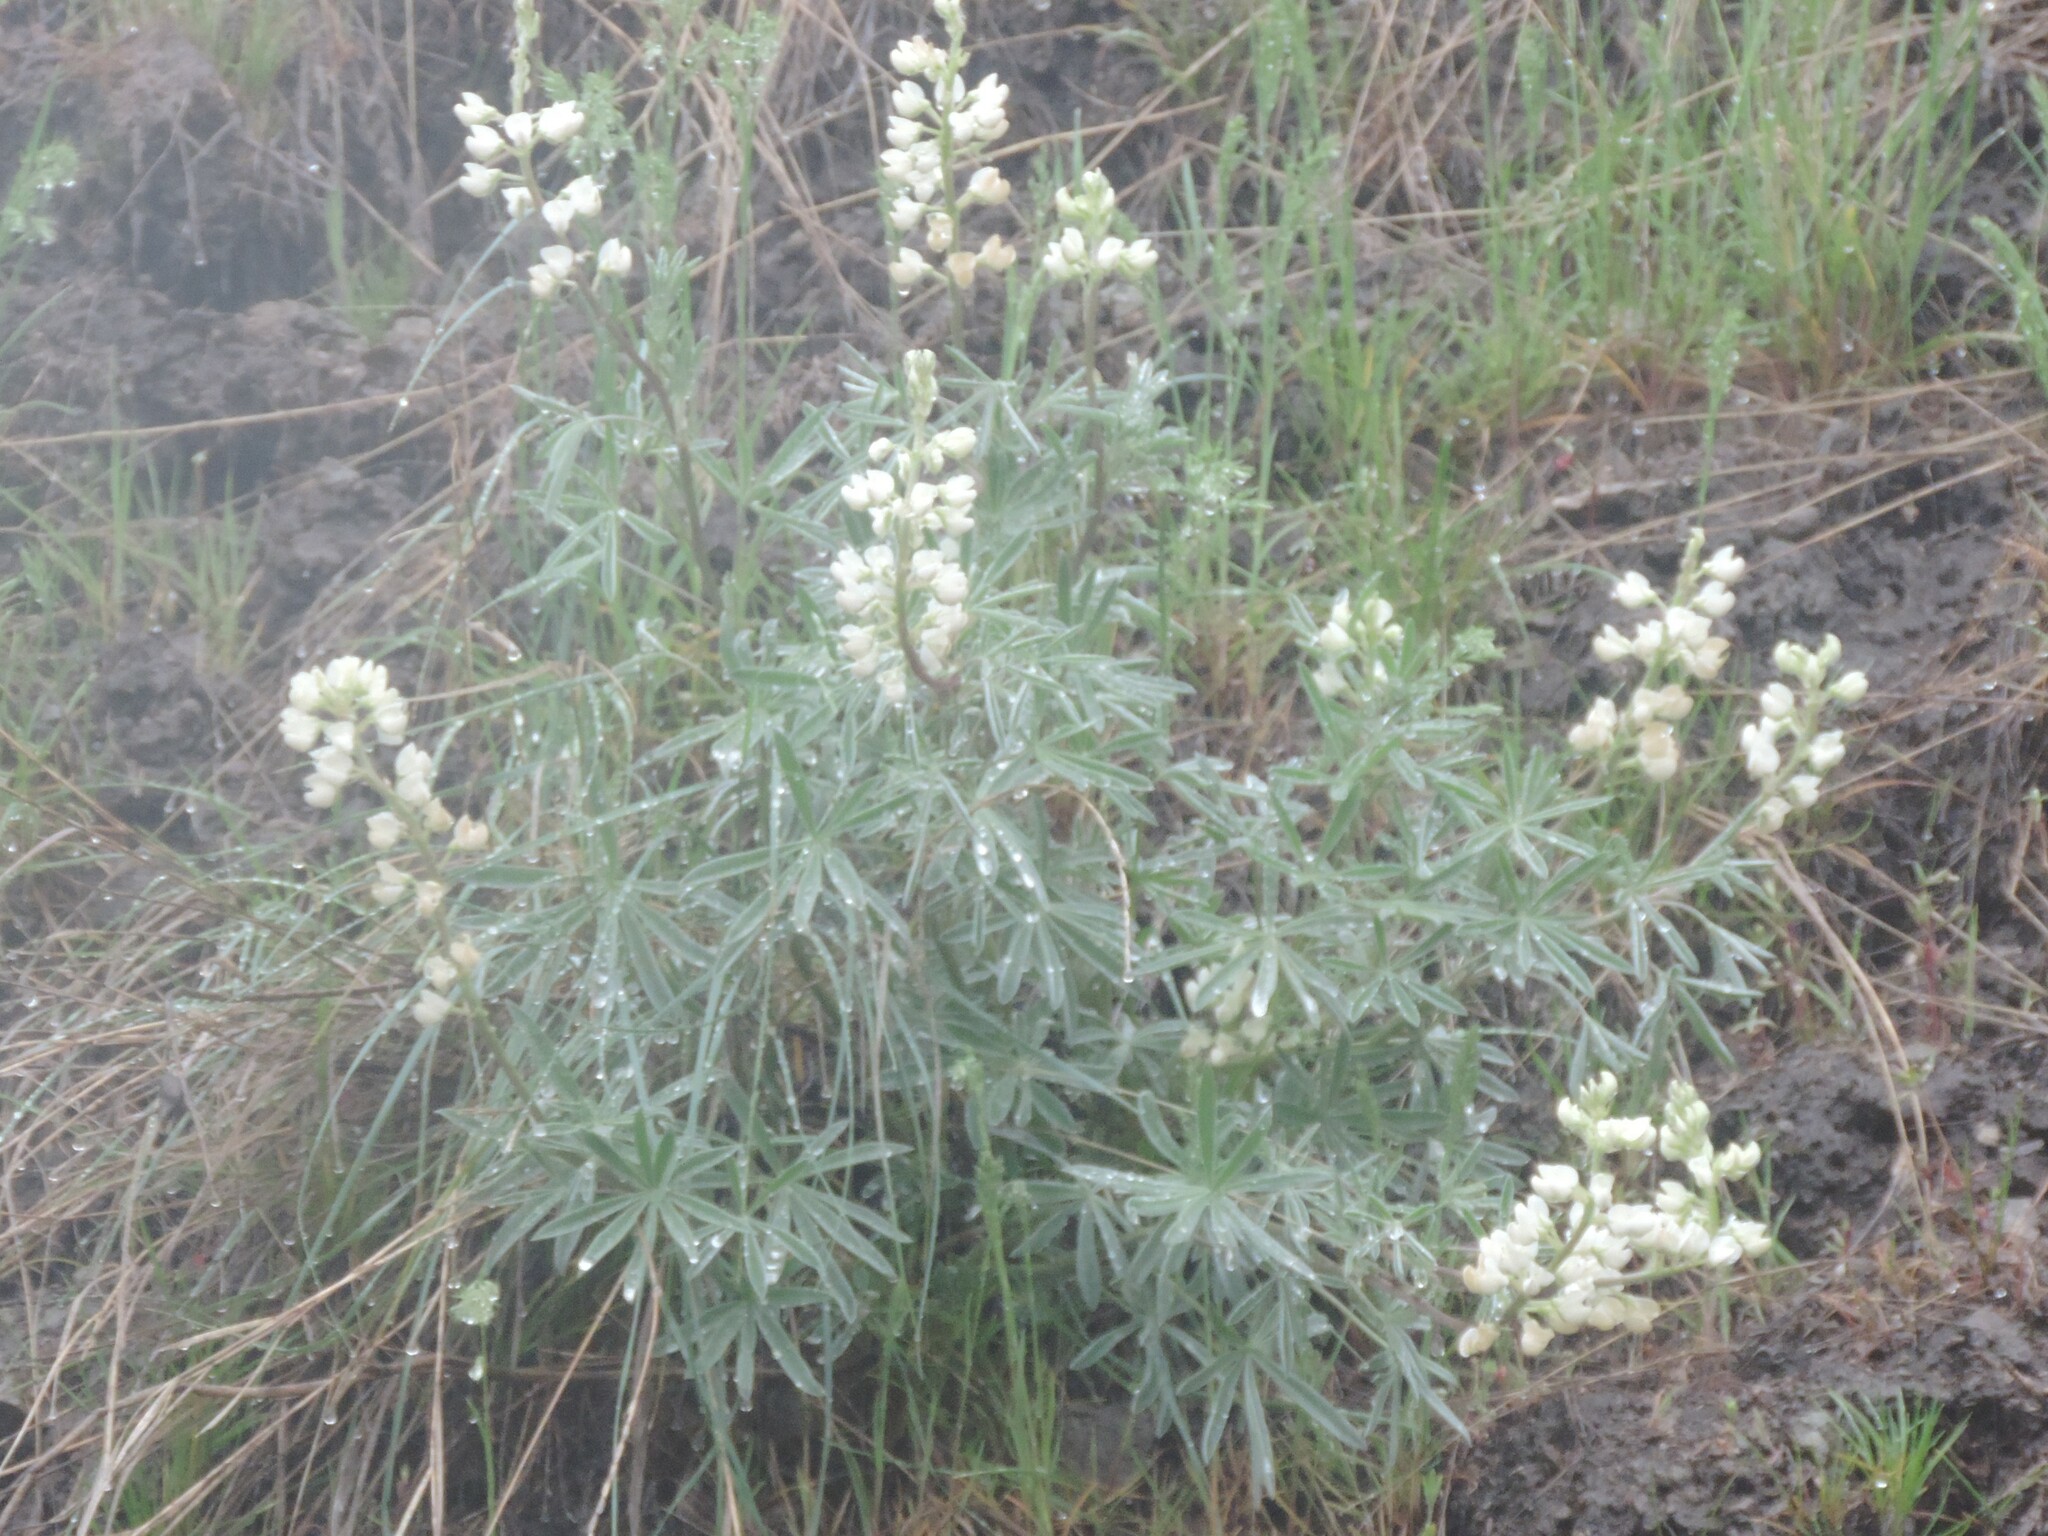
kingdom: Plantae
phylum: Tracheophyta
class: Magnoliopsida
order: Fabales
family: Fabaceae
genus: Lupinus
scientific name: Lupinus sulphureus
